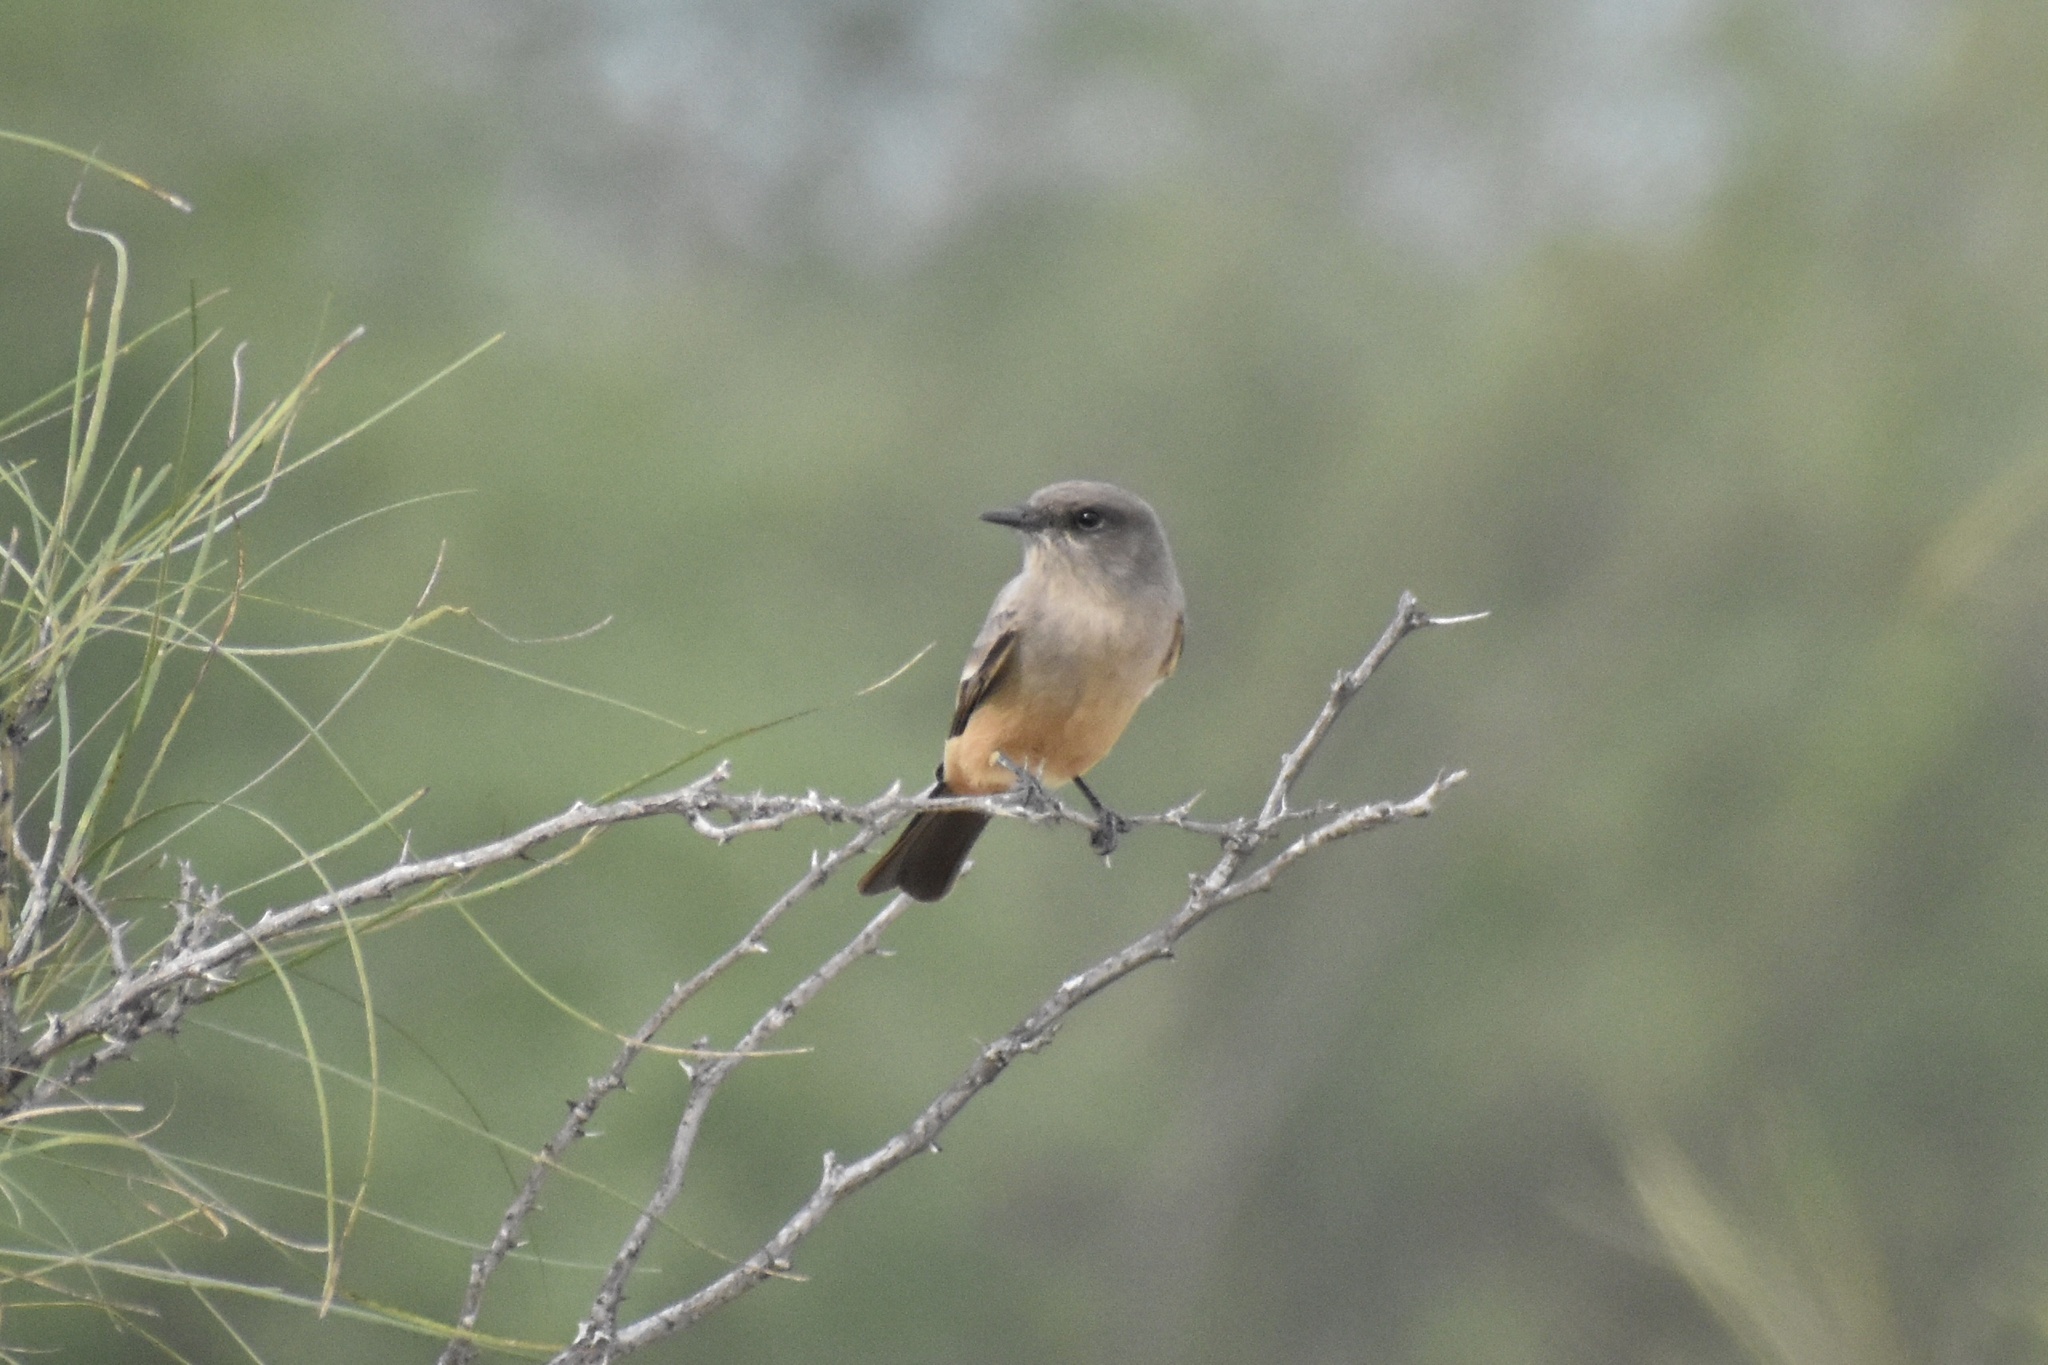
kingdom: Animalia
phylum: Chordata
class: Aves
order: Passeriformes
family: Tyrannidae
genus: Sayornis
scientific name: Sayornis saya
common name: Say's phoebe
